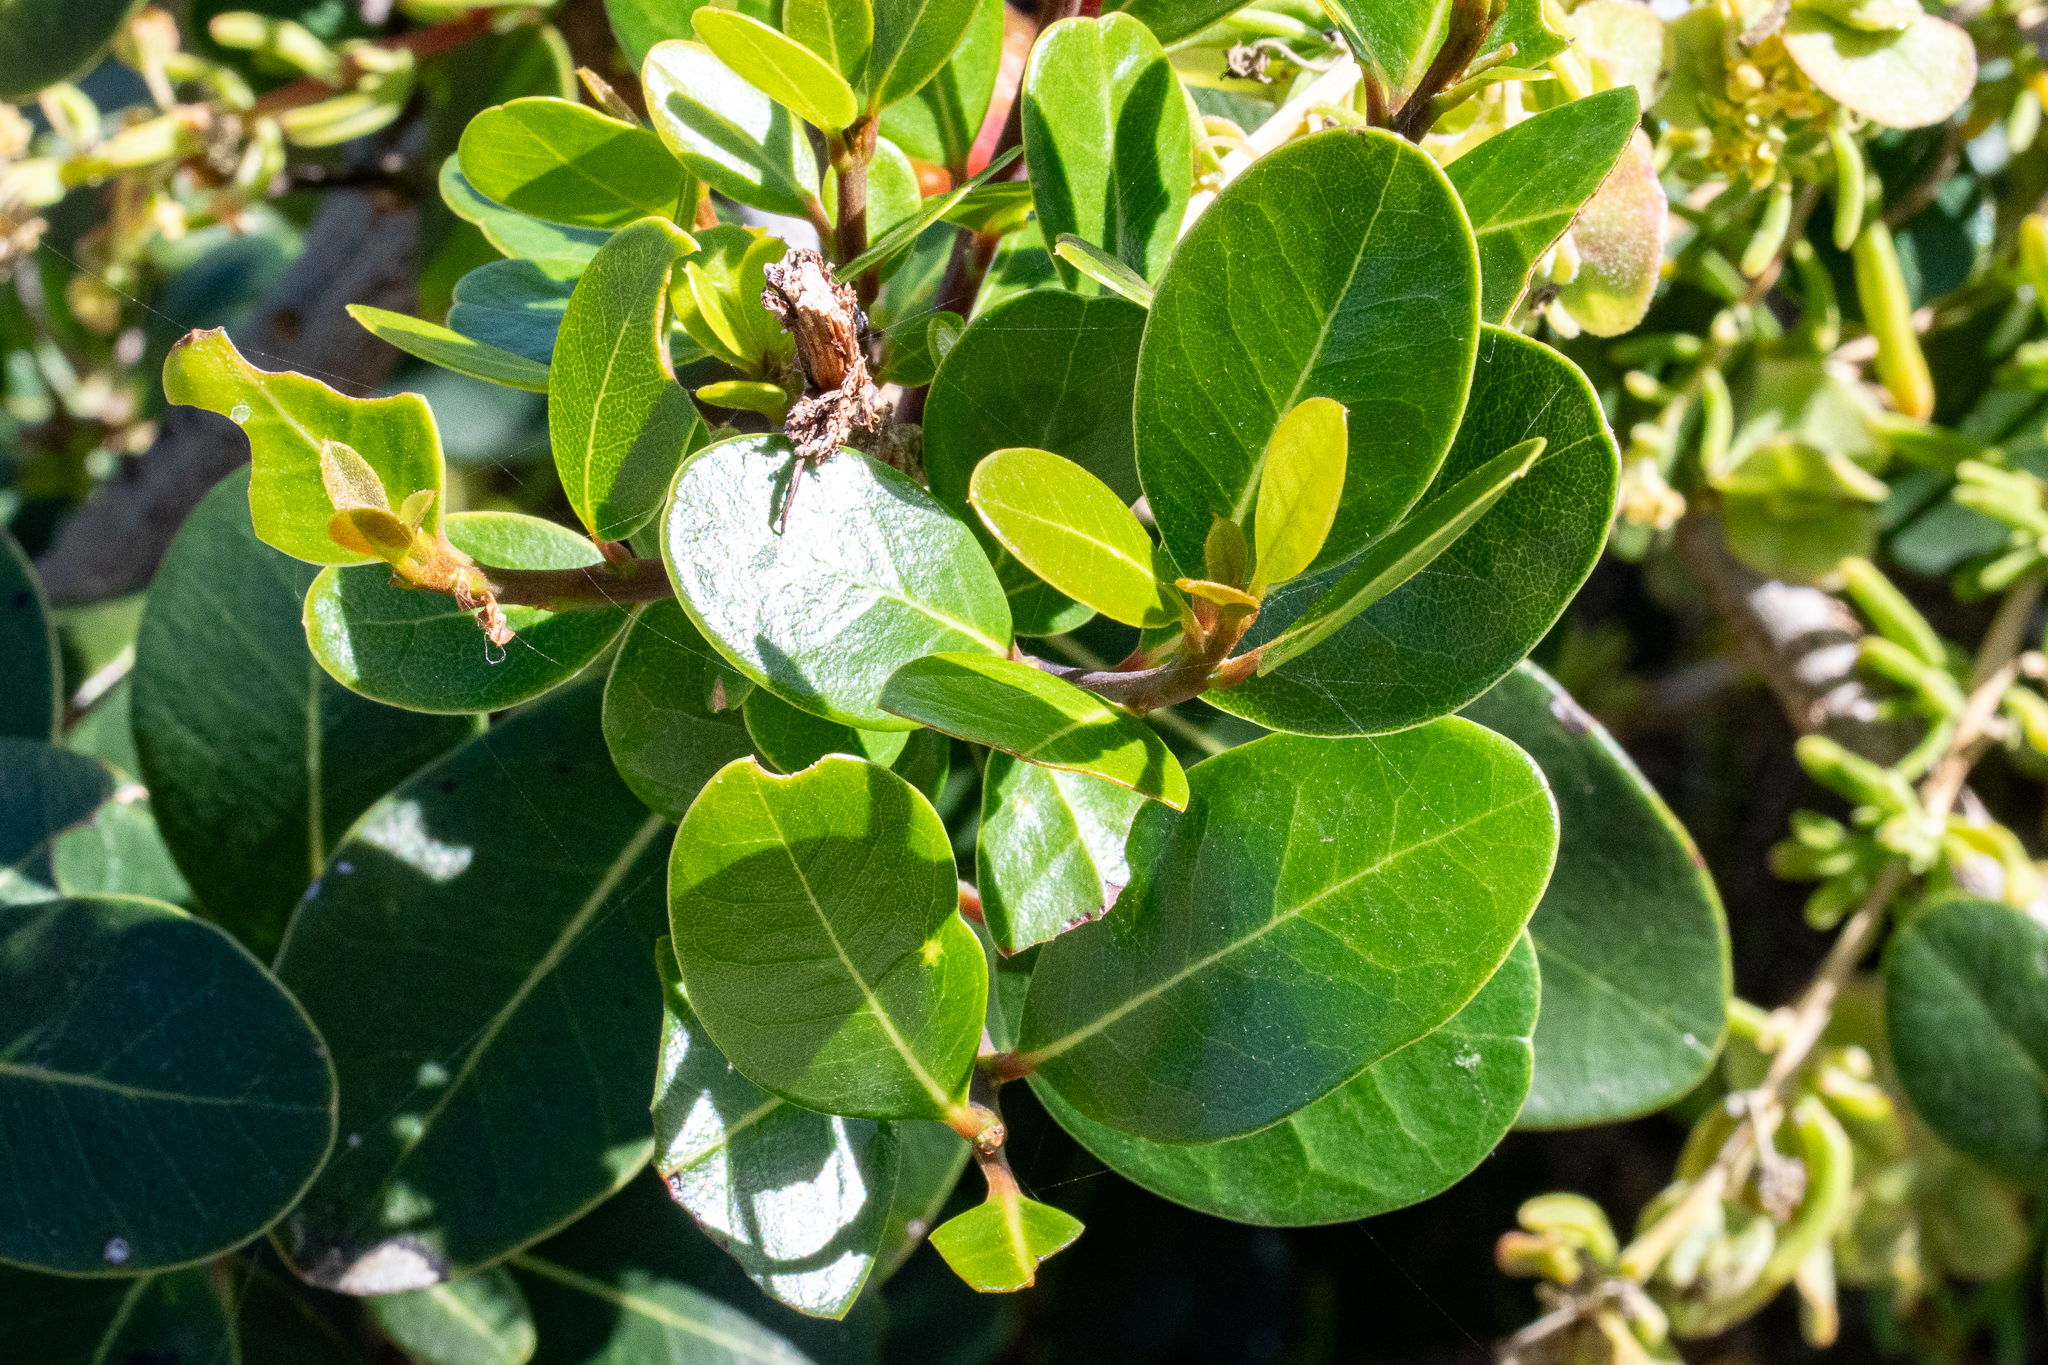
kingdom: Plantae
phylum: Tracheophyta
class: Magnoliopsida
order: Ericales
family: Sapotaceae
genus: Sideroxylon
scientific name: Sideroxylon inerme
